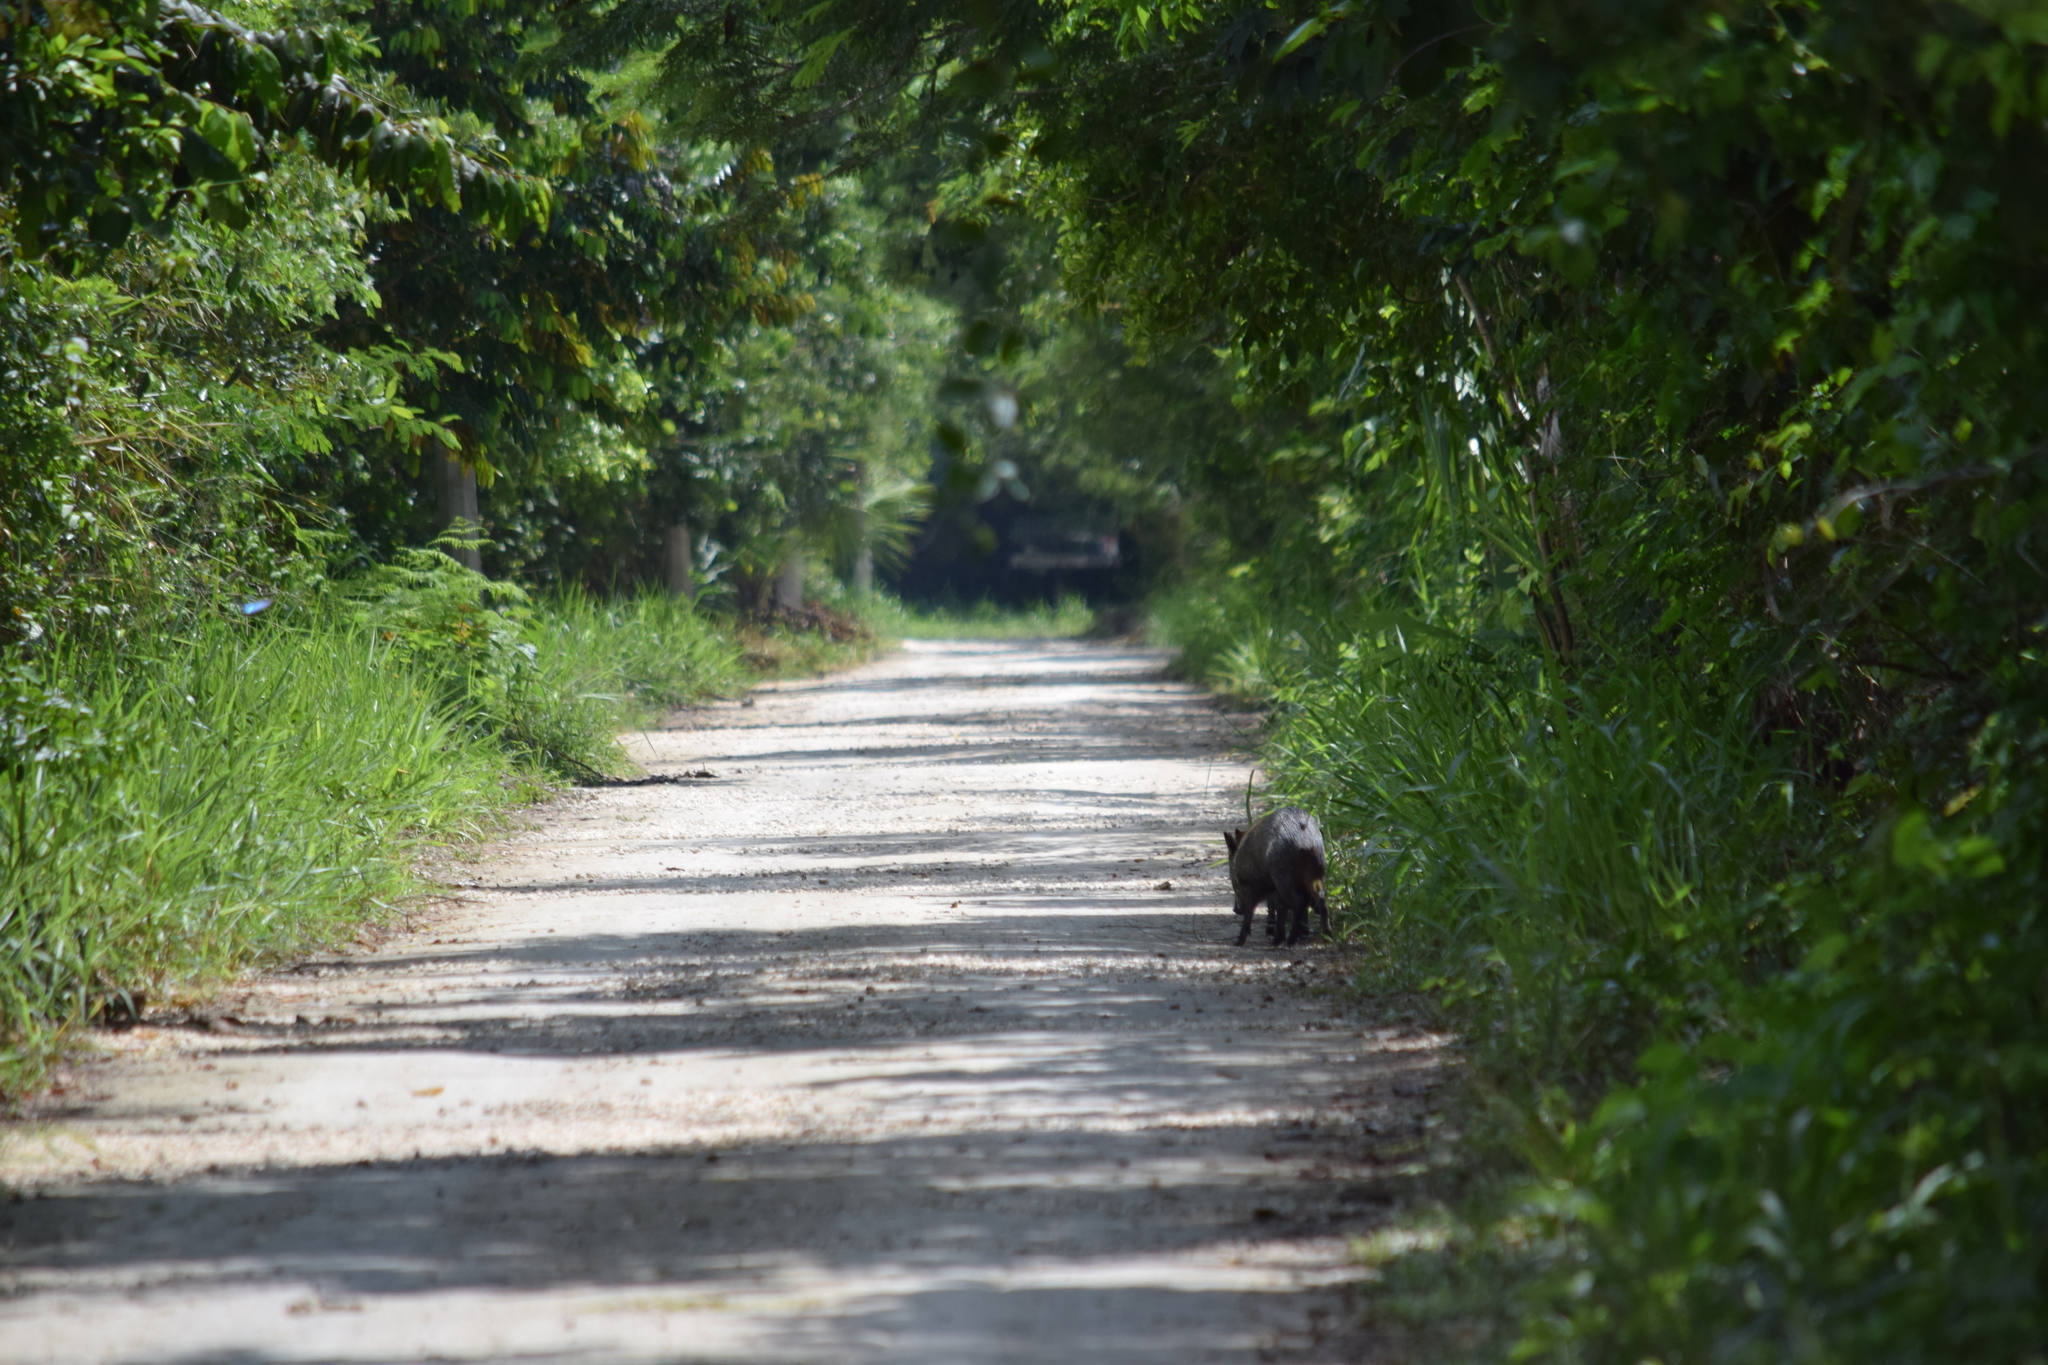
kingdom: Animalia
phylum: Chordata
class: Mammalia
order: Artiodactyla
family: Tayassuidae
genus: Pecari
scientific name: Pecari tajacu
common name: Collared peccary
